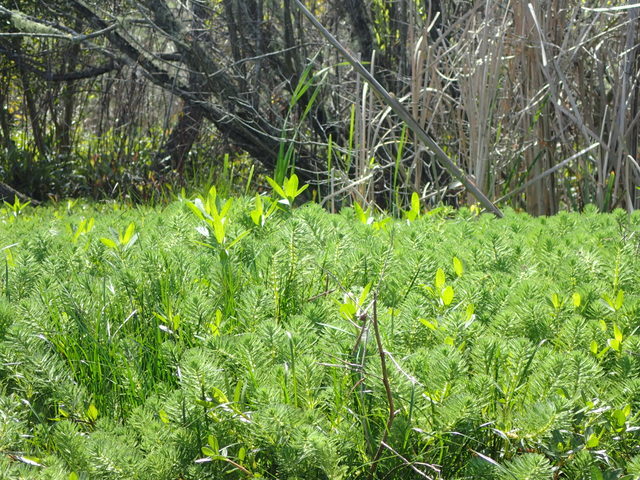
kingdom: Plantae
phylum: Tracheophyta
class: Magnoliopsida
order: Saxifragales
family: Haloragaceae
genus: Myriophyllum
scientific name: Myriophyllum aquaticum
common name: Parrot's feather
